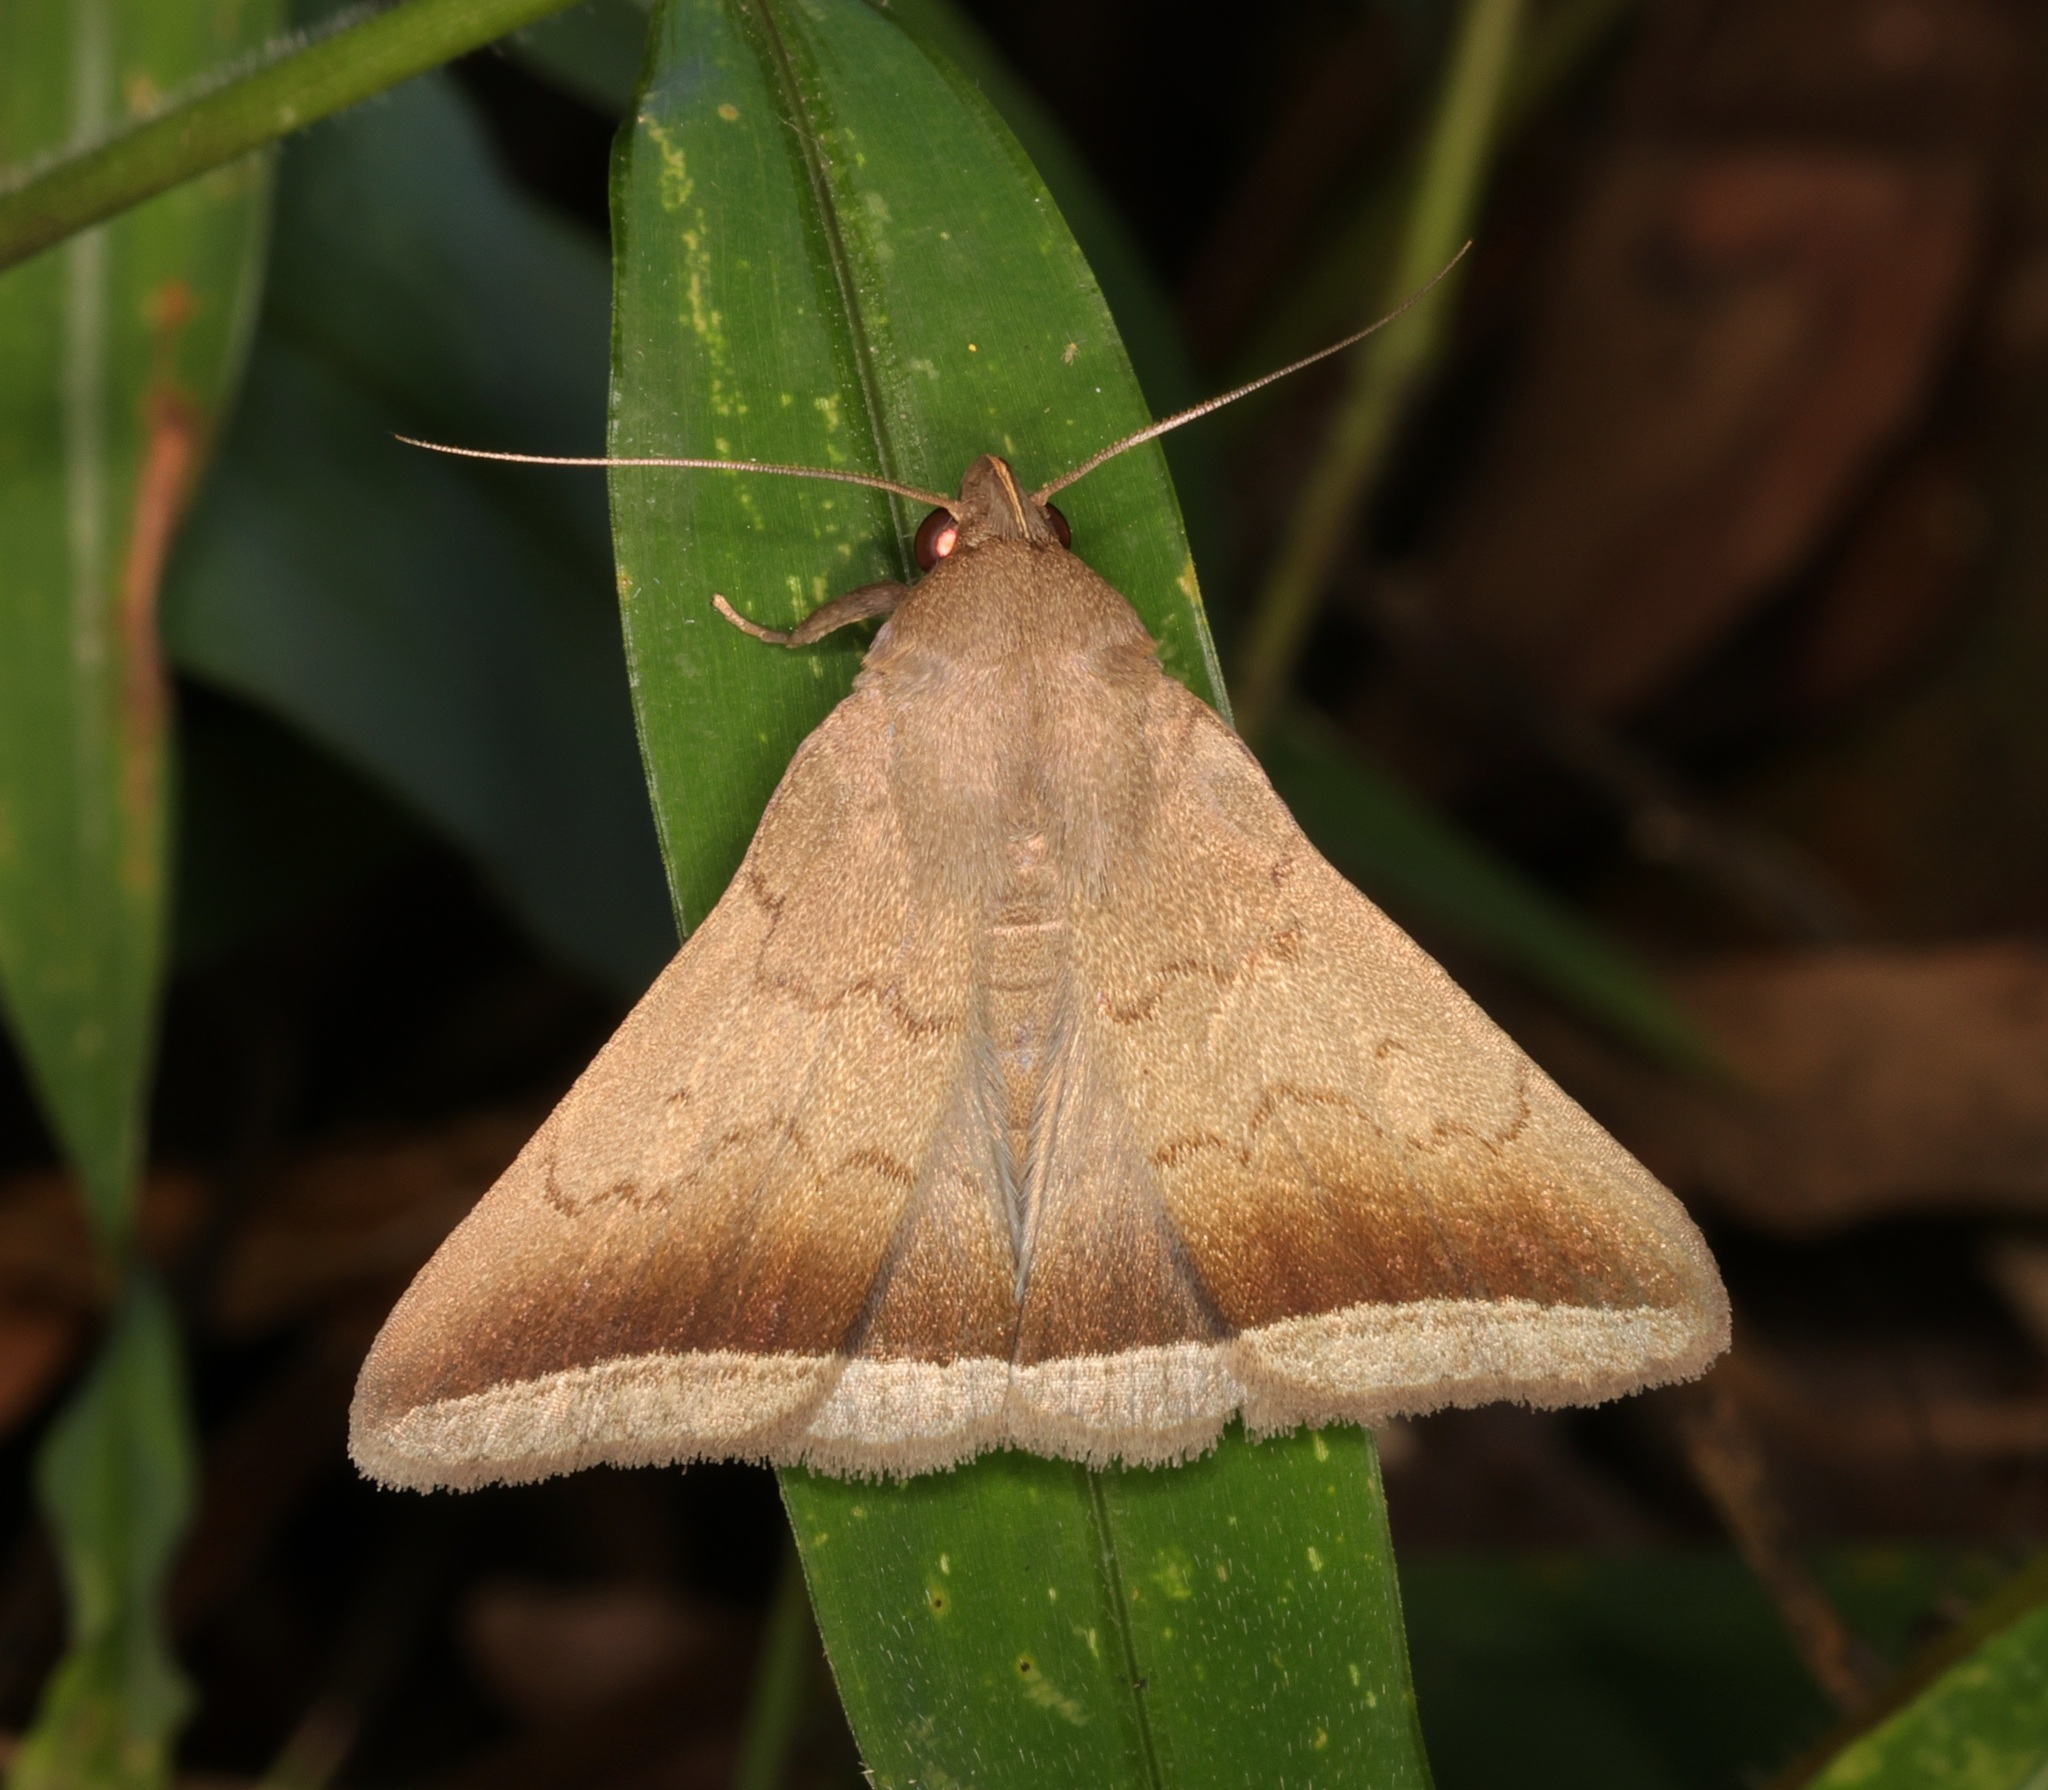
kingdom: Animalia
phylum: Arthropoda
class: Insecta
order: Lepidoptera
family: Erebidae
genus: Simplicia
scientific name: Simplicia bimarginata
